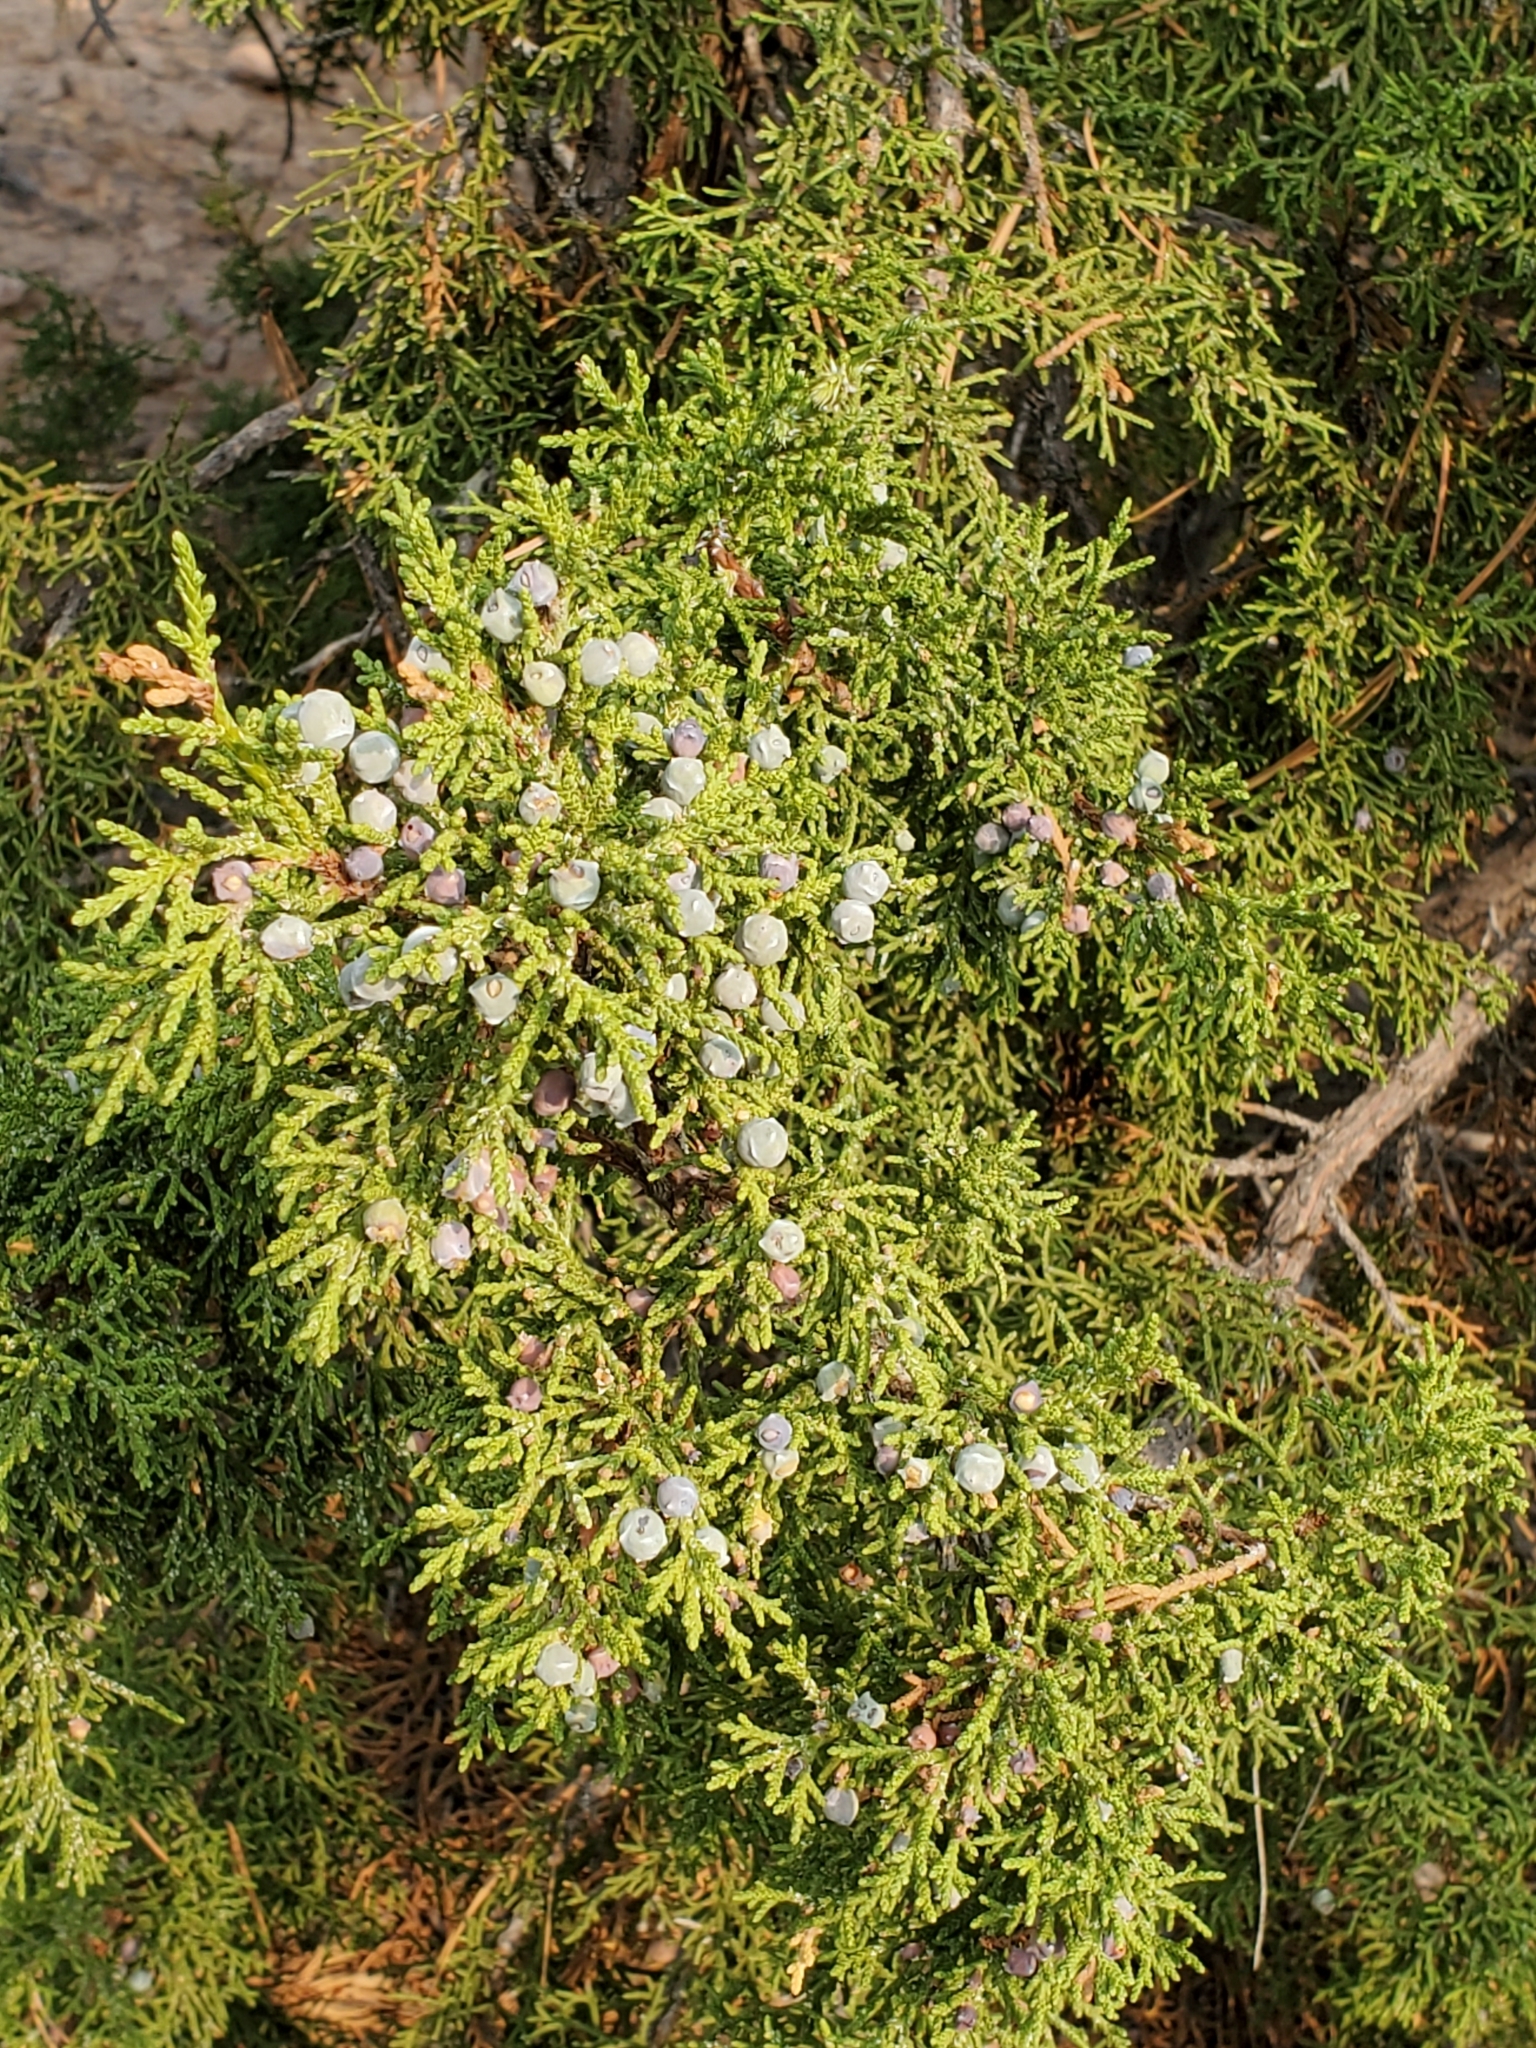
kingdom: Plantae
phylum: Tracheophyta
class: Pinopsida
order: Pinales
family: Cupressaceae
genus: Juniperus
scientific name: Juniperus monosperma
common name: One-seed juniper
